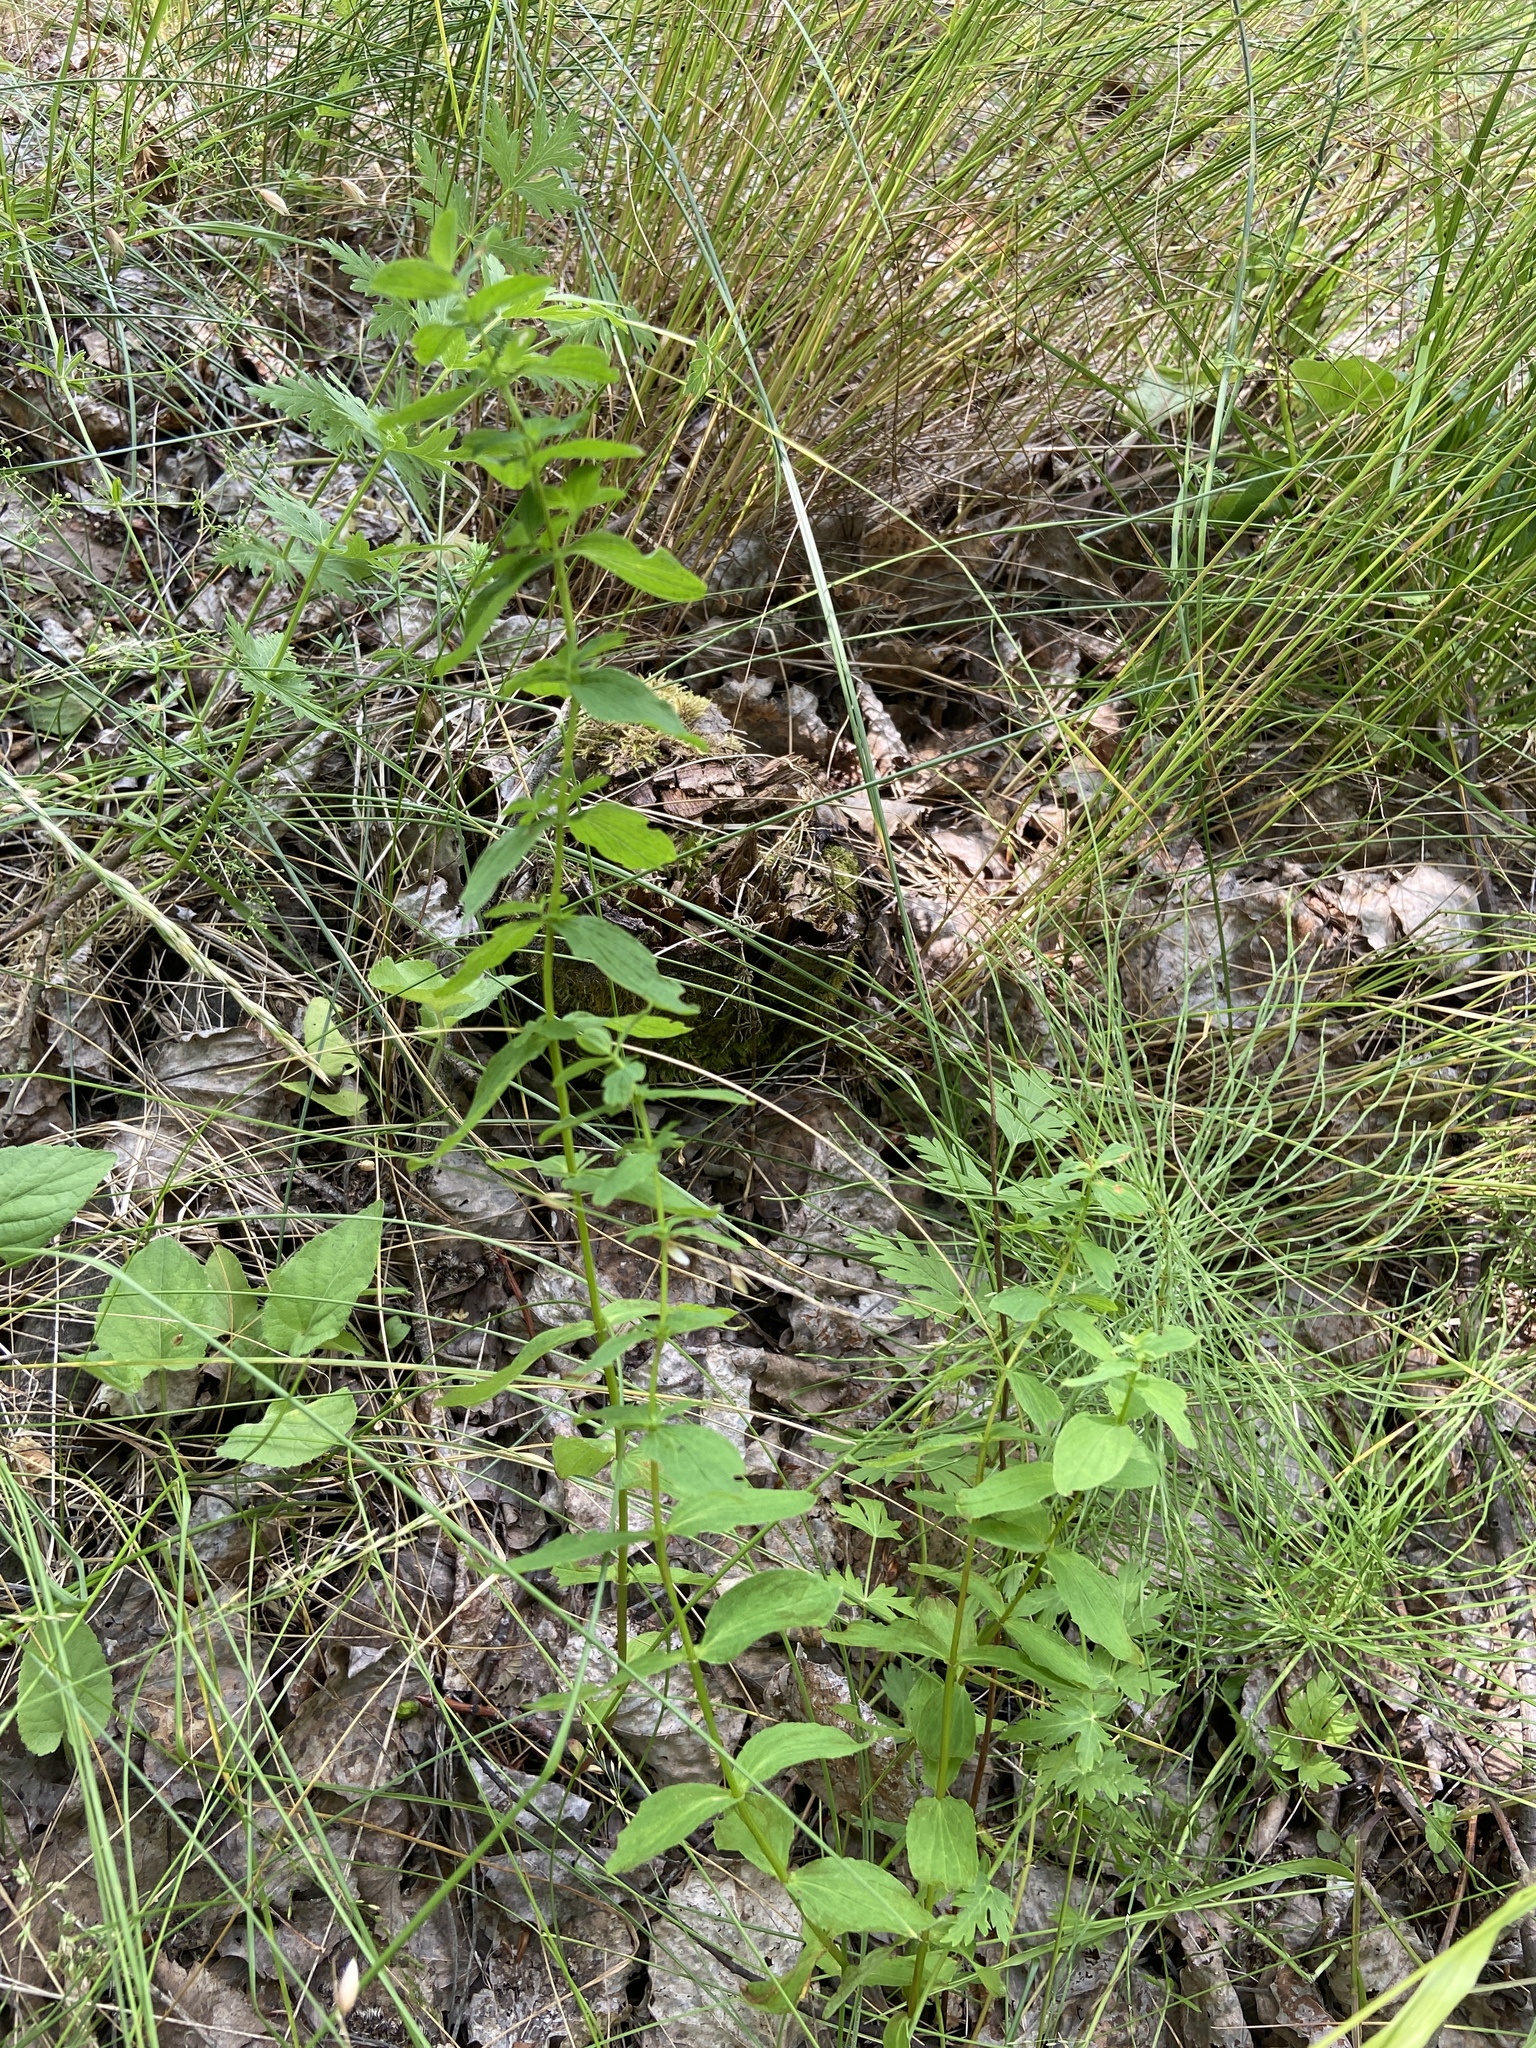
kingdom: Plantae
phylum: Tracheophyta
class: Magnoliopsida
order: Malpighiales
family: Hypericaceae
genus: Hypericum
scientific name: Hypericum maculatum
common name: Imperforate st. john's-wort
